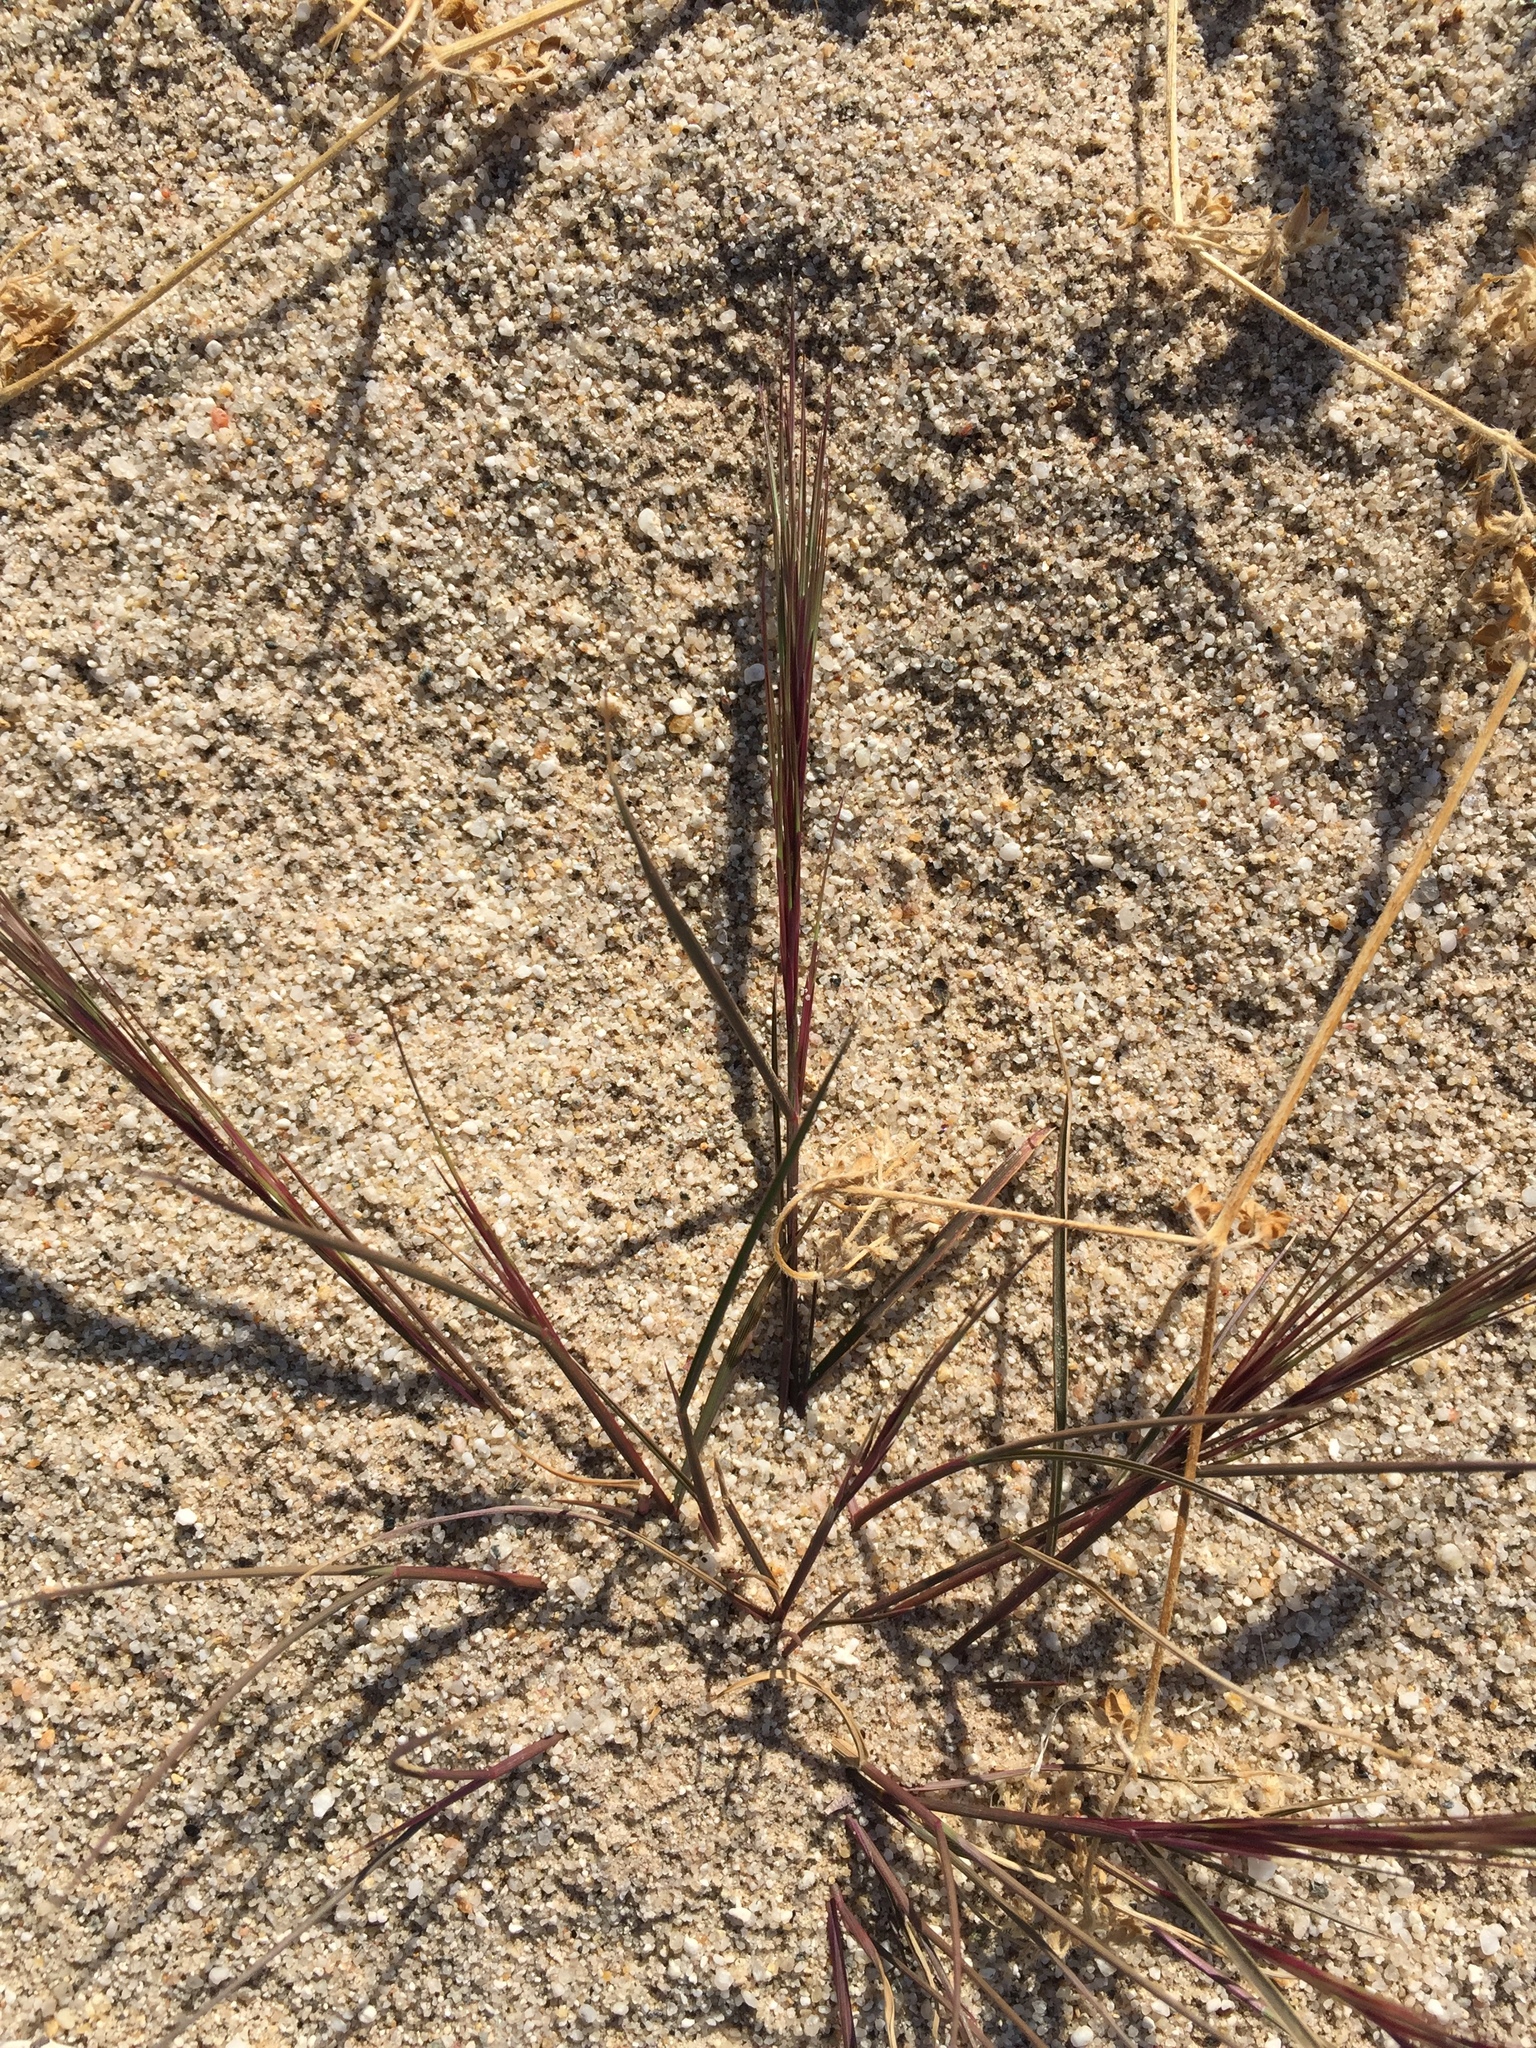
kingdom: Plantae
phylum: Tracheophyta
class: Liliopsida
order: Poales
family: Poaceae
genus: Aristida
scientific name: Aristida adscensionis
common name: Sixweeks threeawn
